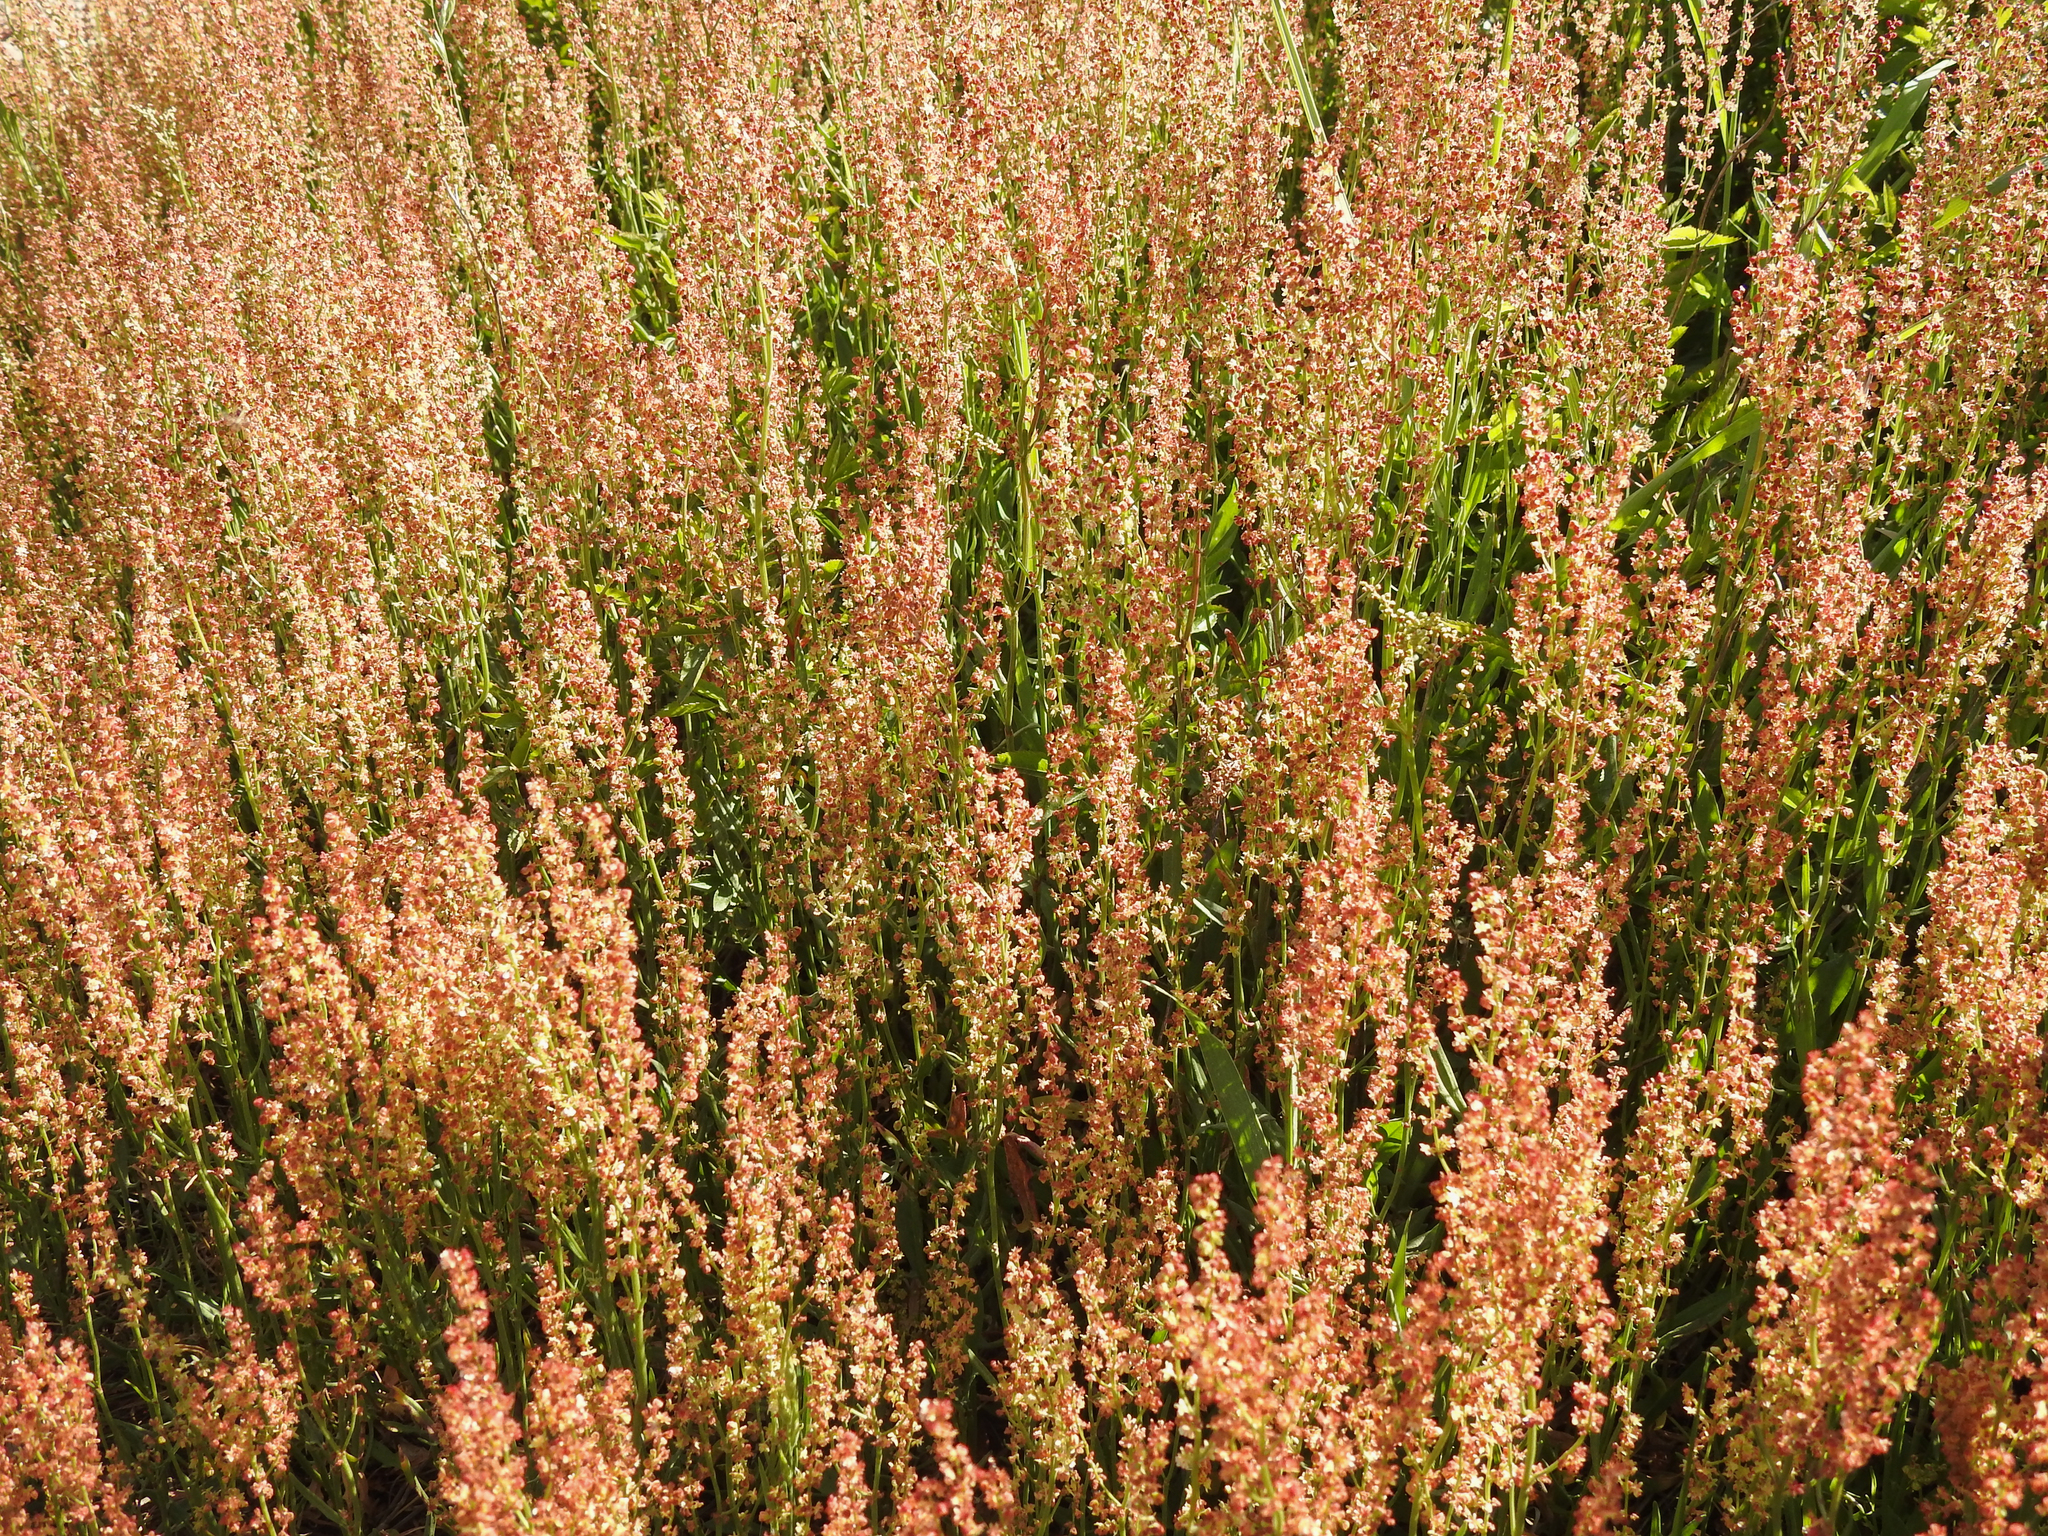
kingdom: Plantae
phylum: Tracheophyta
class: Magnoliopsida
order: Caryophyllales
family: Polygonaceae
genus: Rumex
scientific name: Rumex acetosella
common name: Common sheep sorrel
